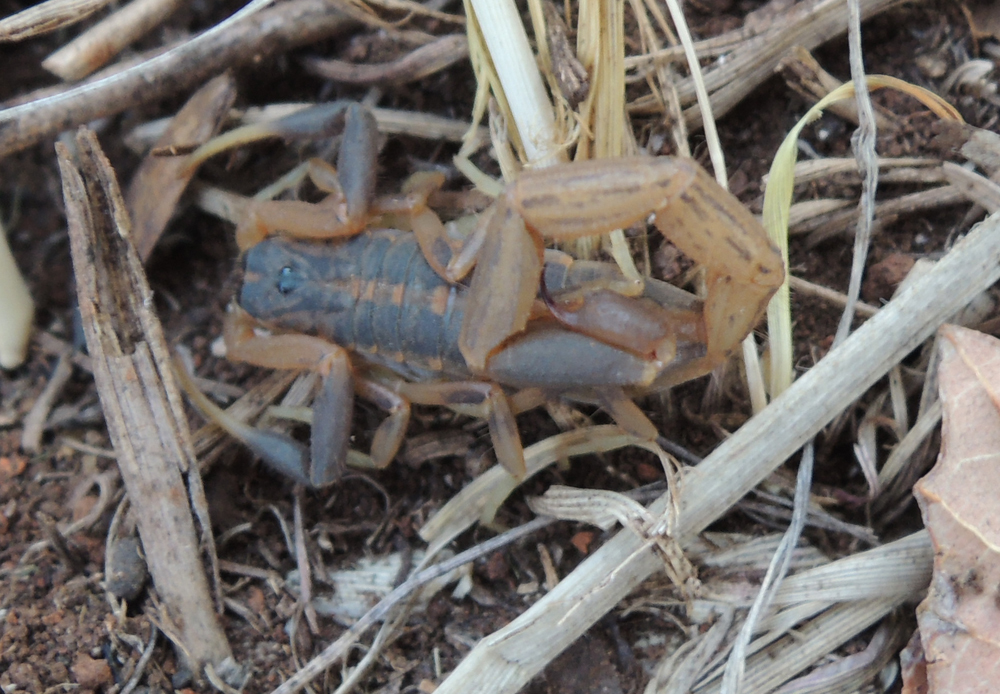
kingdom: Animalia
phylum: Arthropoda
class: Arachnida
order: Scorpiones
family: Buthidae
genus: Uroplectes
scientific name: Uroplectes triangulifer
